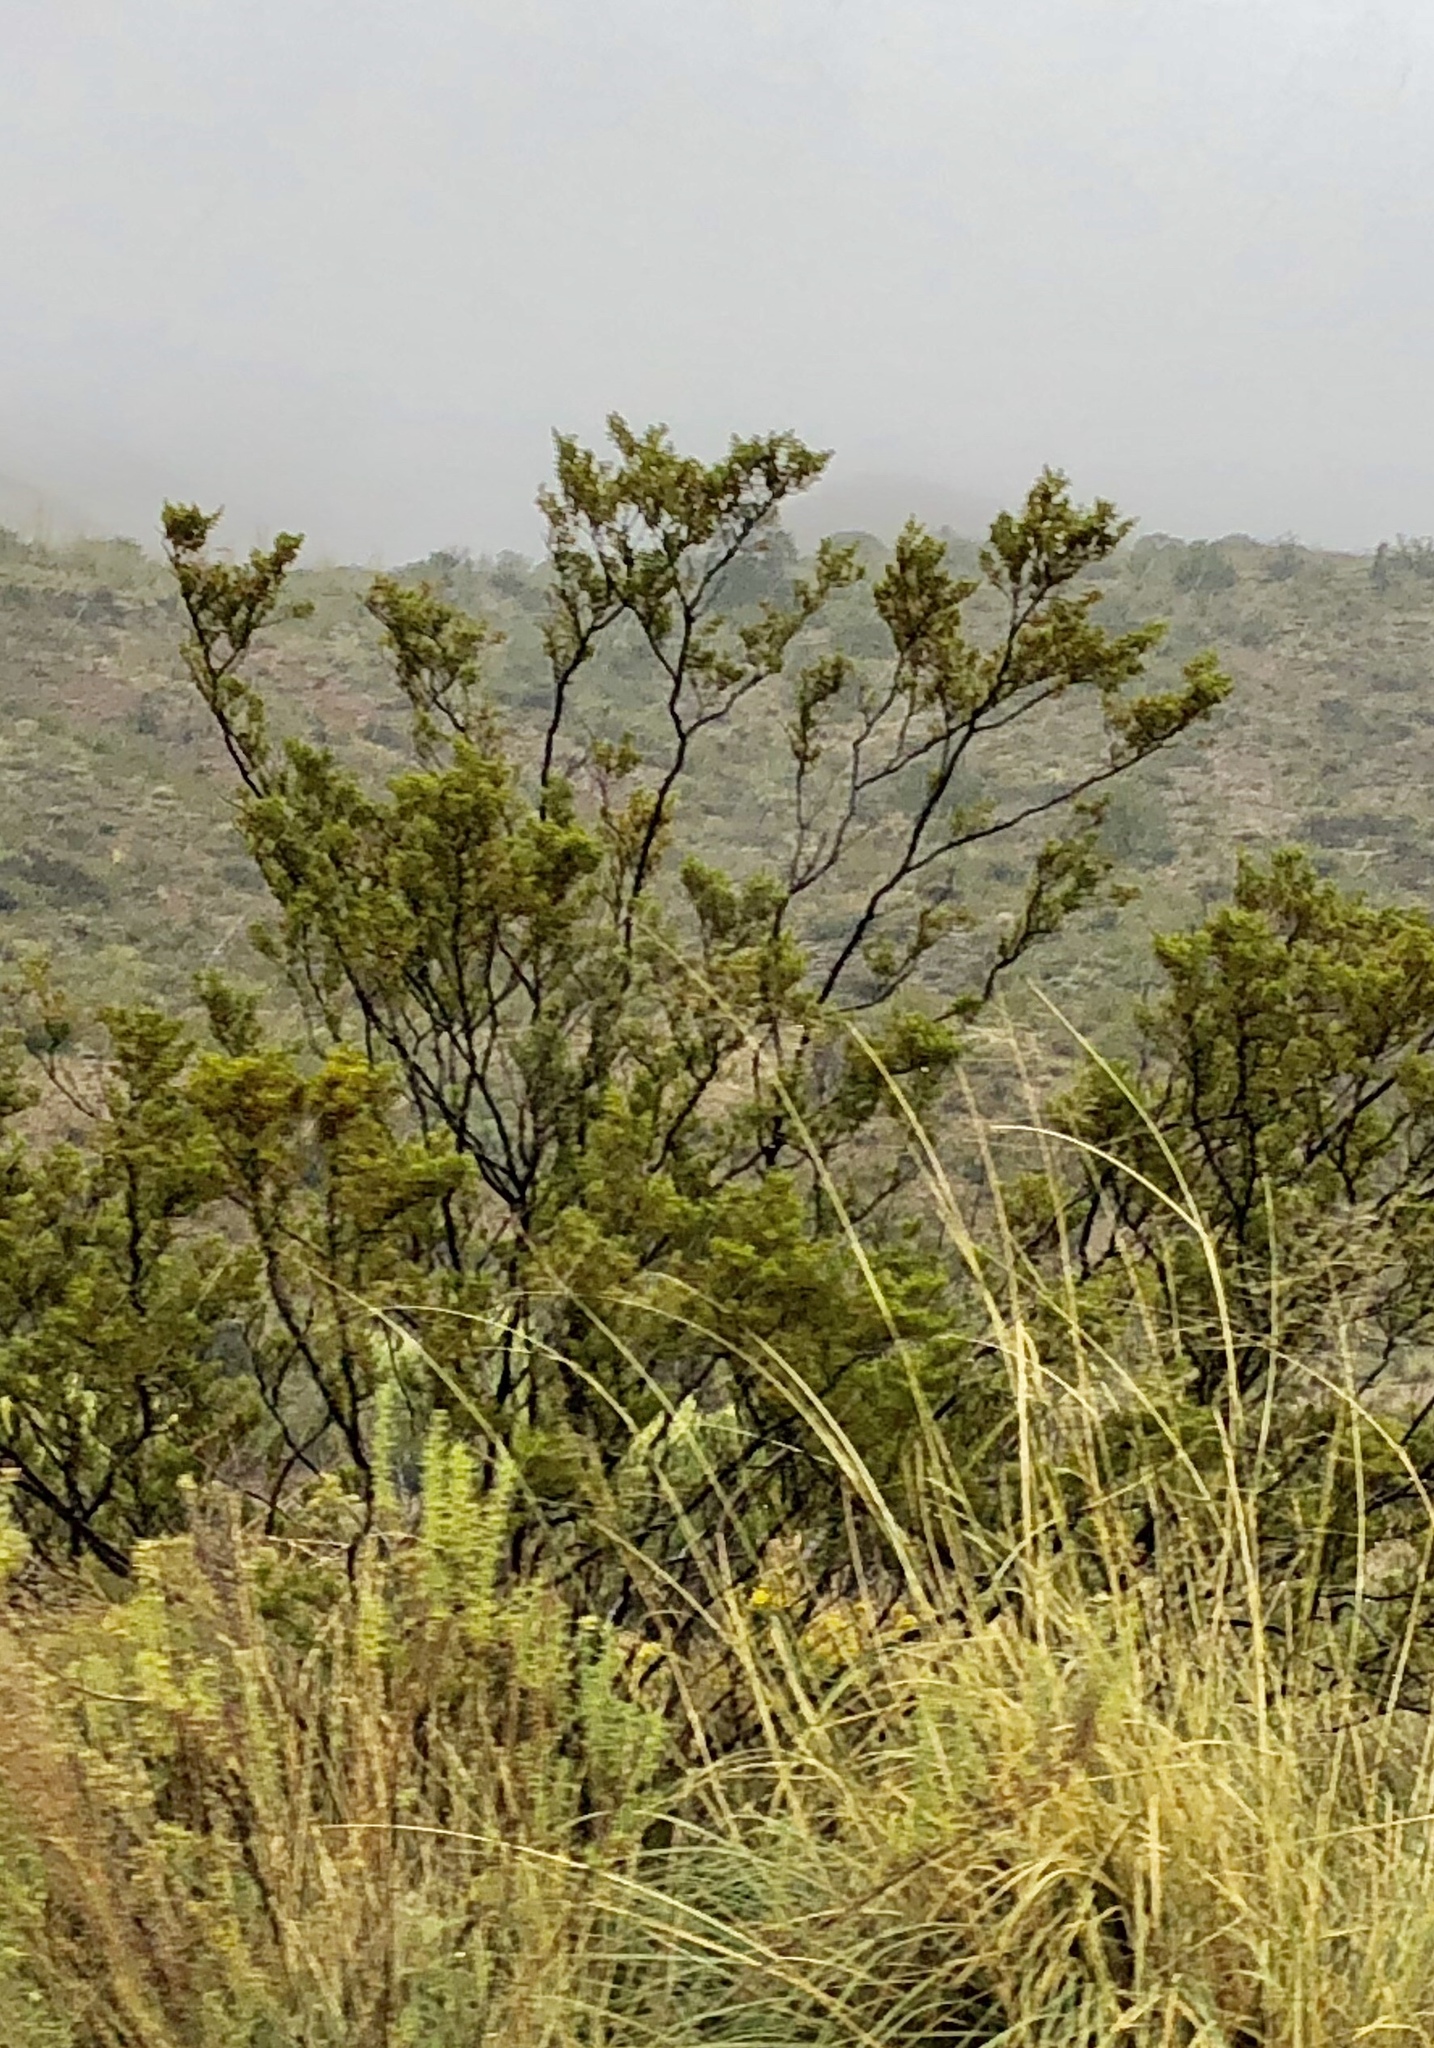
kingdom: Plantae
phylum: Tracheophyta
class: Magnoliopsida
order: Zygophyllales
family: Zygophyllaceae
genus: Larrea
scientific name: Larrea tridentata
